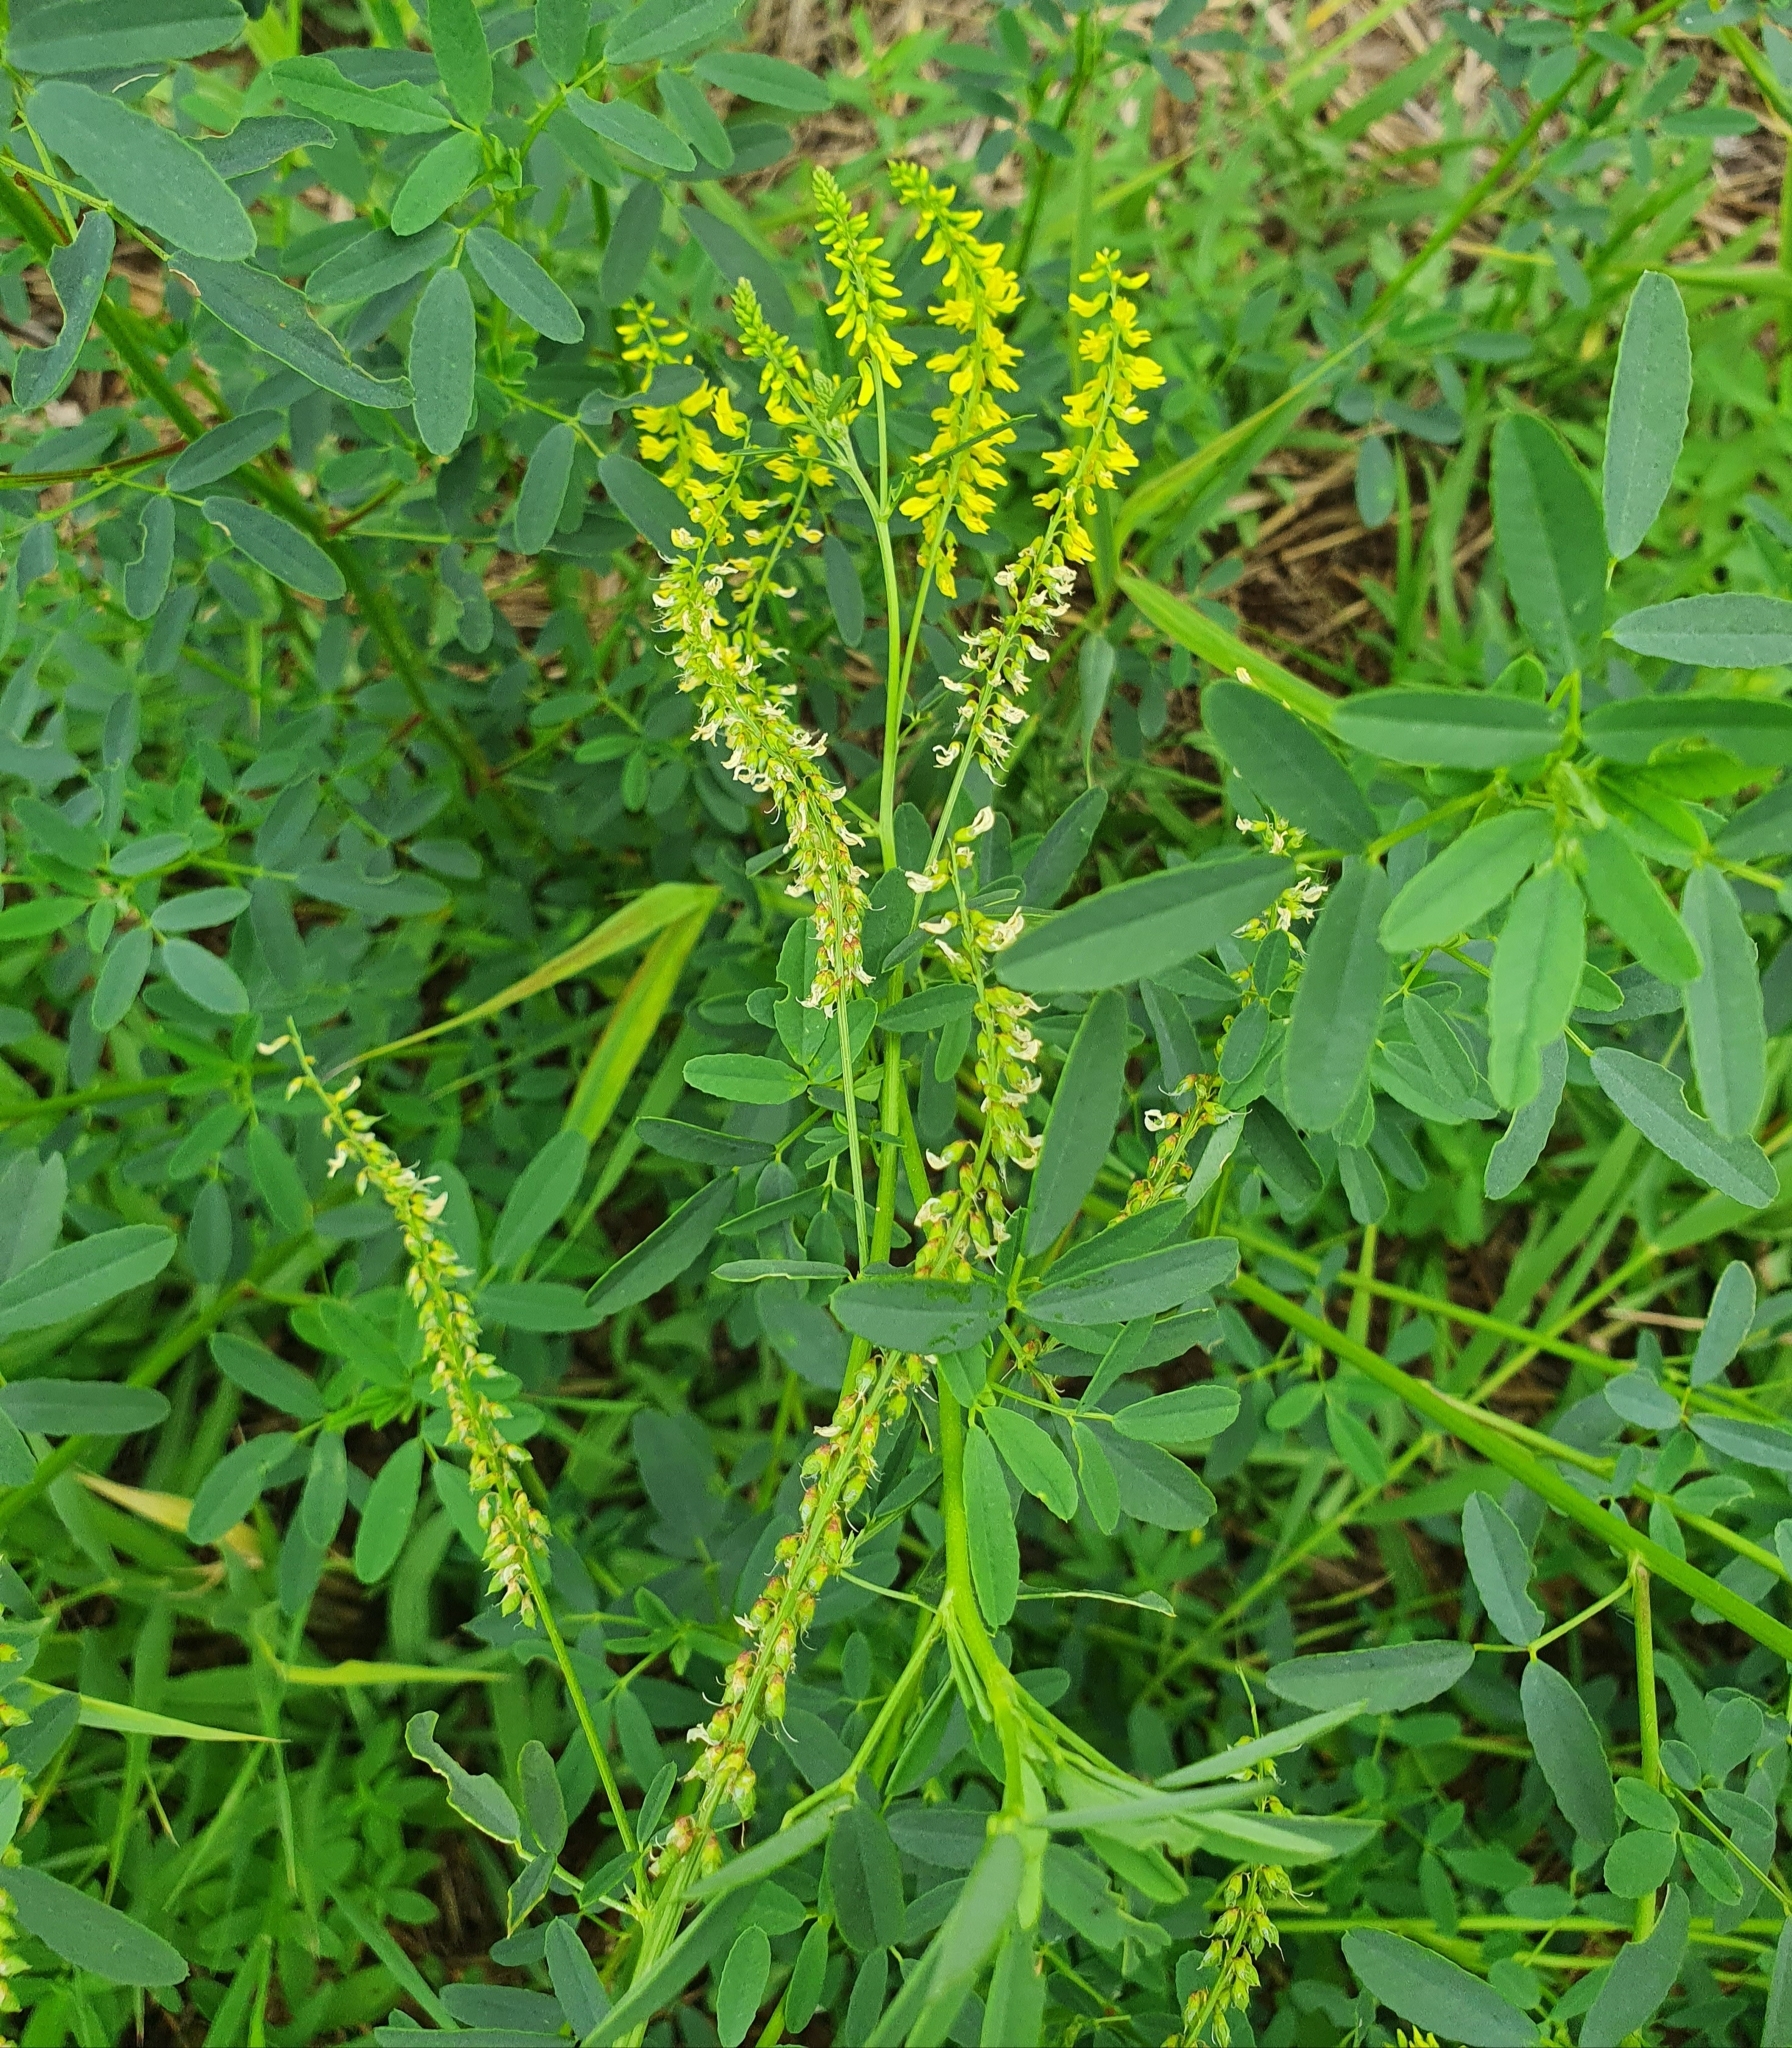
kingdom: Plantae
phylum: Tracheophyta
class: Magnoliopsida
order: Fabales
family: Fabaceae
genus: Melilotus
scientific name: Melilotus officinalis
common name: Sweetclover
